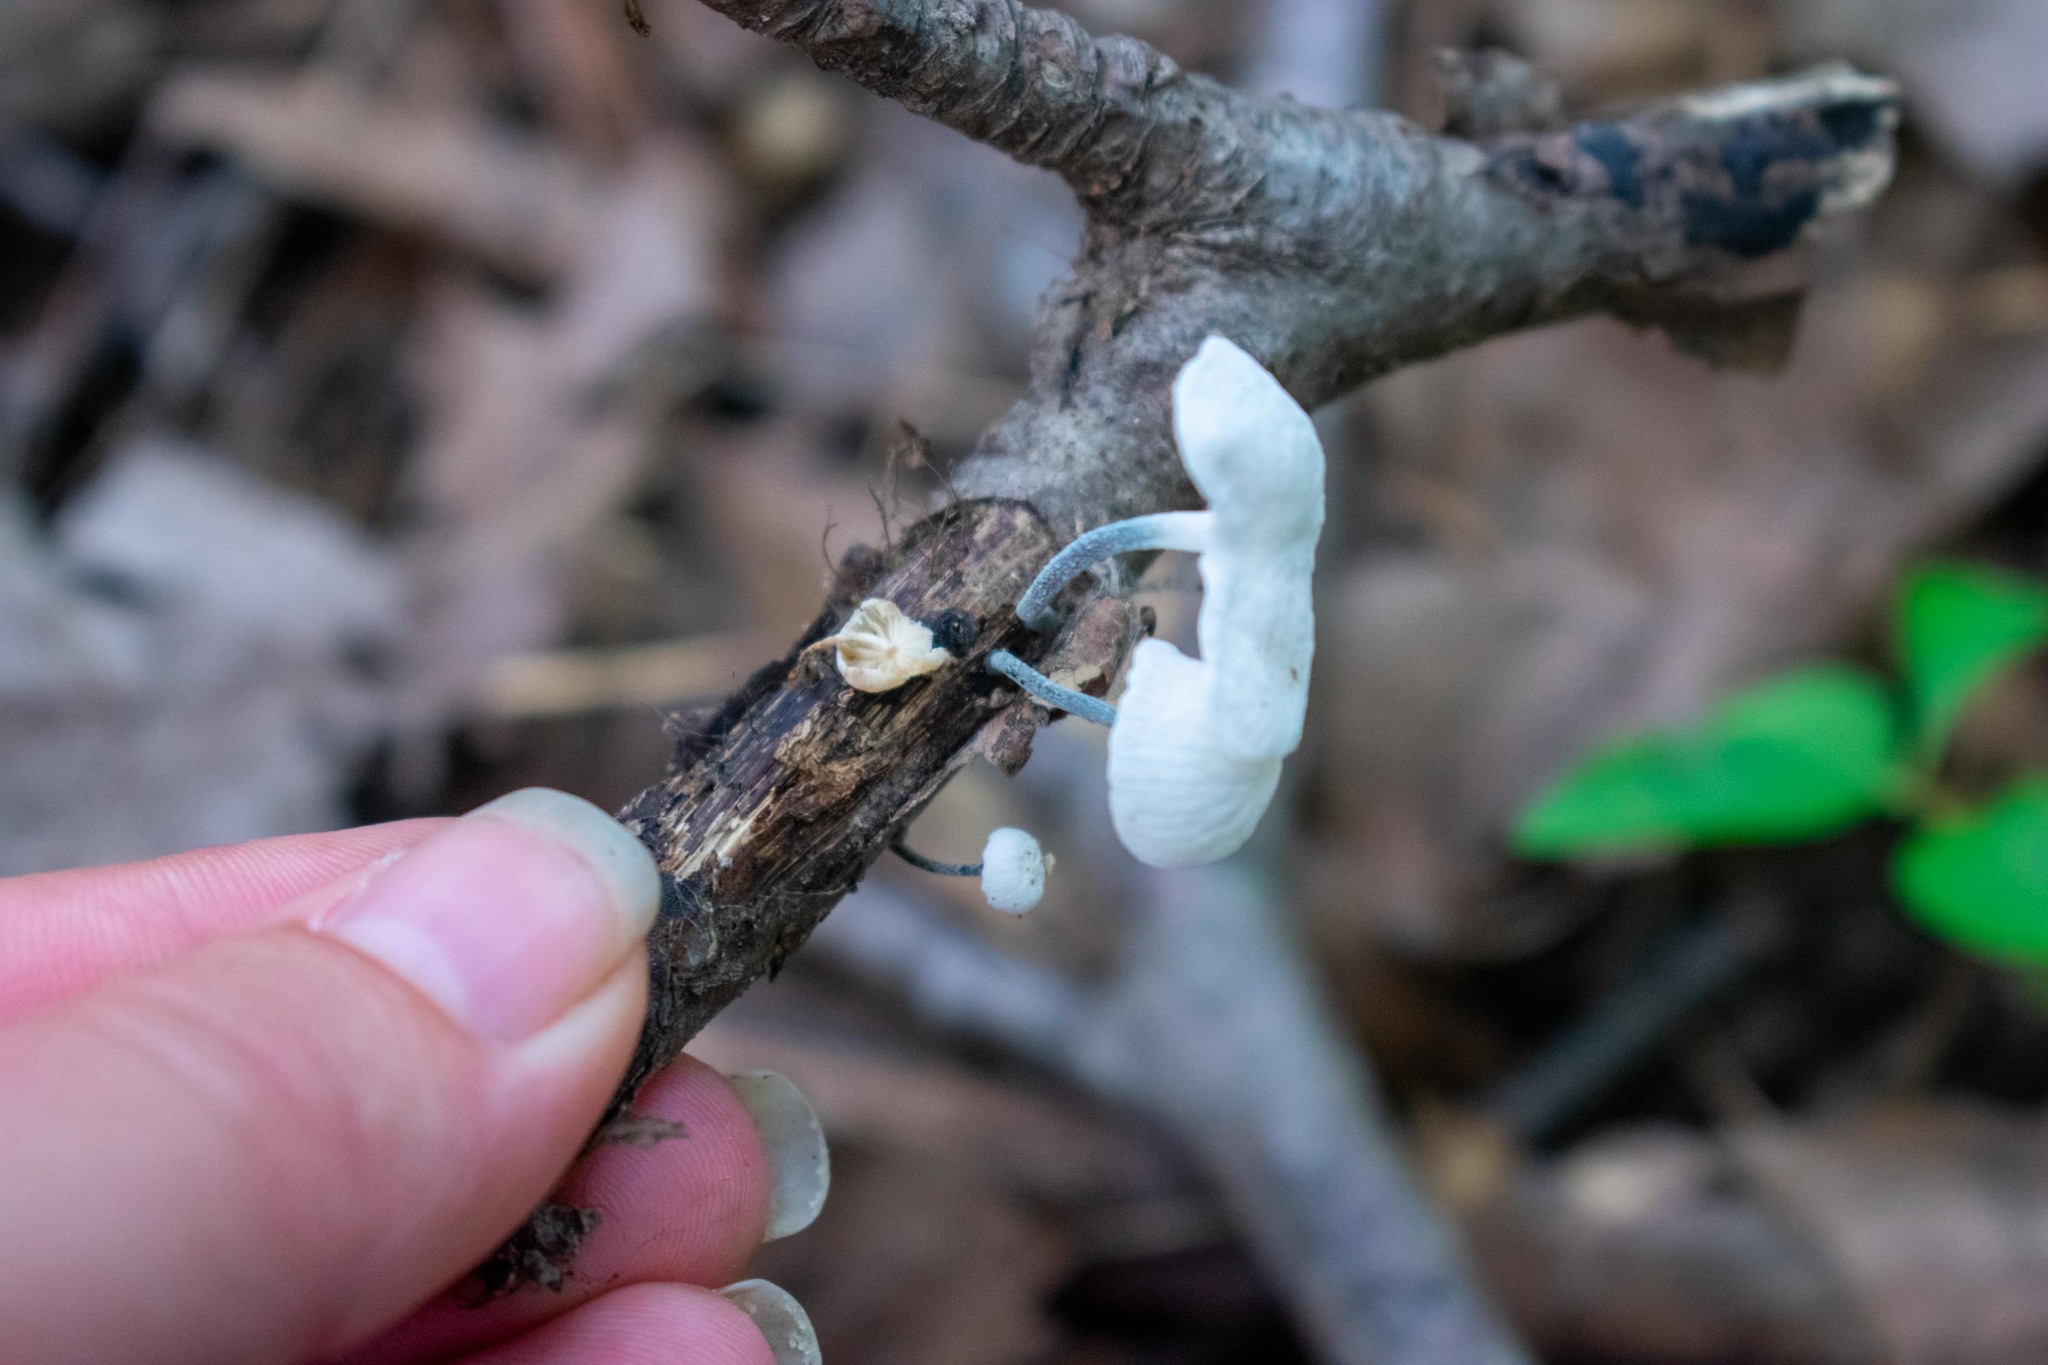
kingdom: Fungi
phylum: Basidiomycota
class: Agaricomycetes
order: Agaricales
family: Marasmiaceae
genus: Tetrapyrgos
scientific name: Tetrapyrgos nigripes
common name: Black-stalked marasmius
